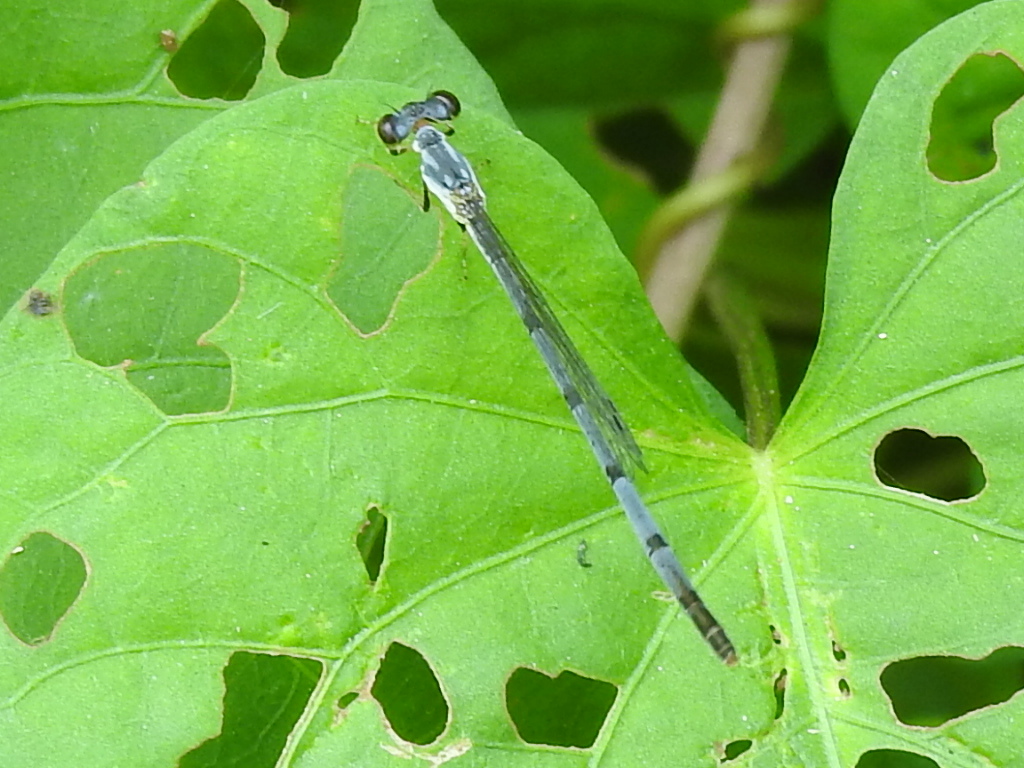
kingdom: Animalia
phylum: Arthropoda
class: Insecta
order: Odonata
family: Coenagrionidae
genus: Ischnura
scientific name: Ischnura posita
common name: Fragile forktail
